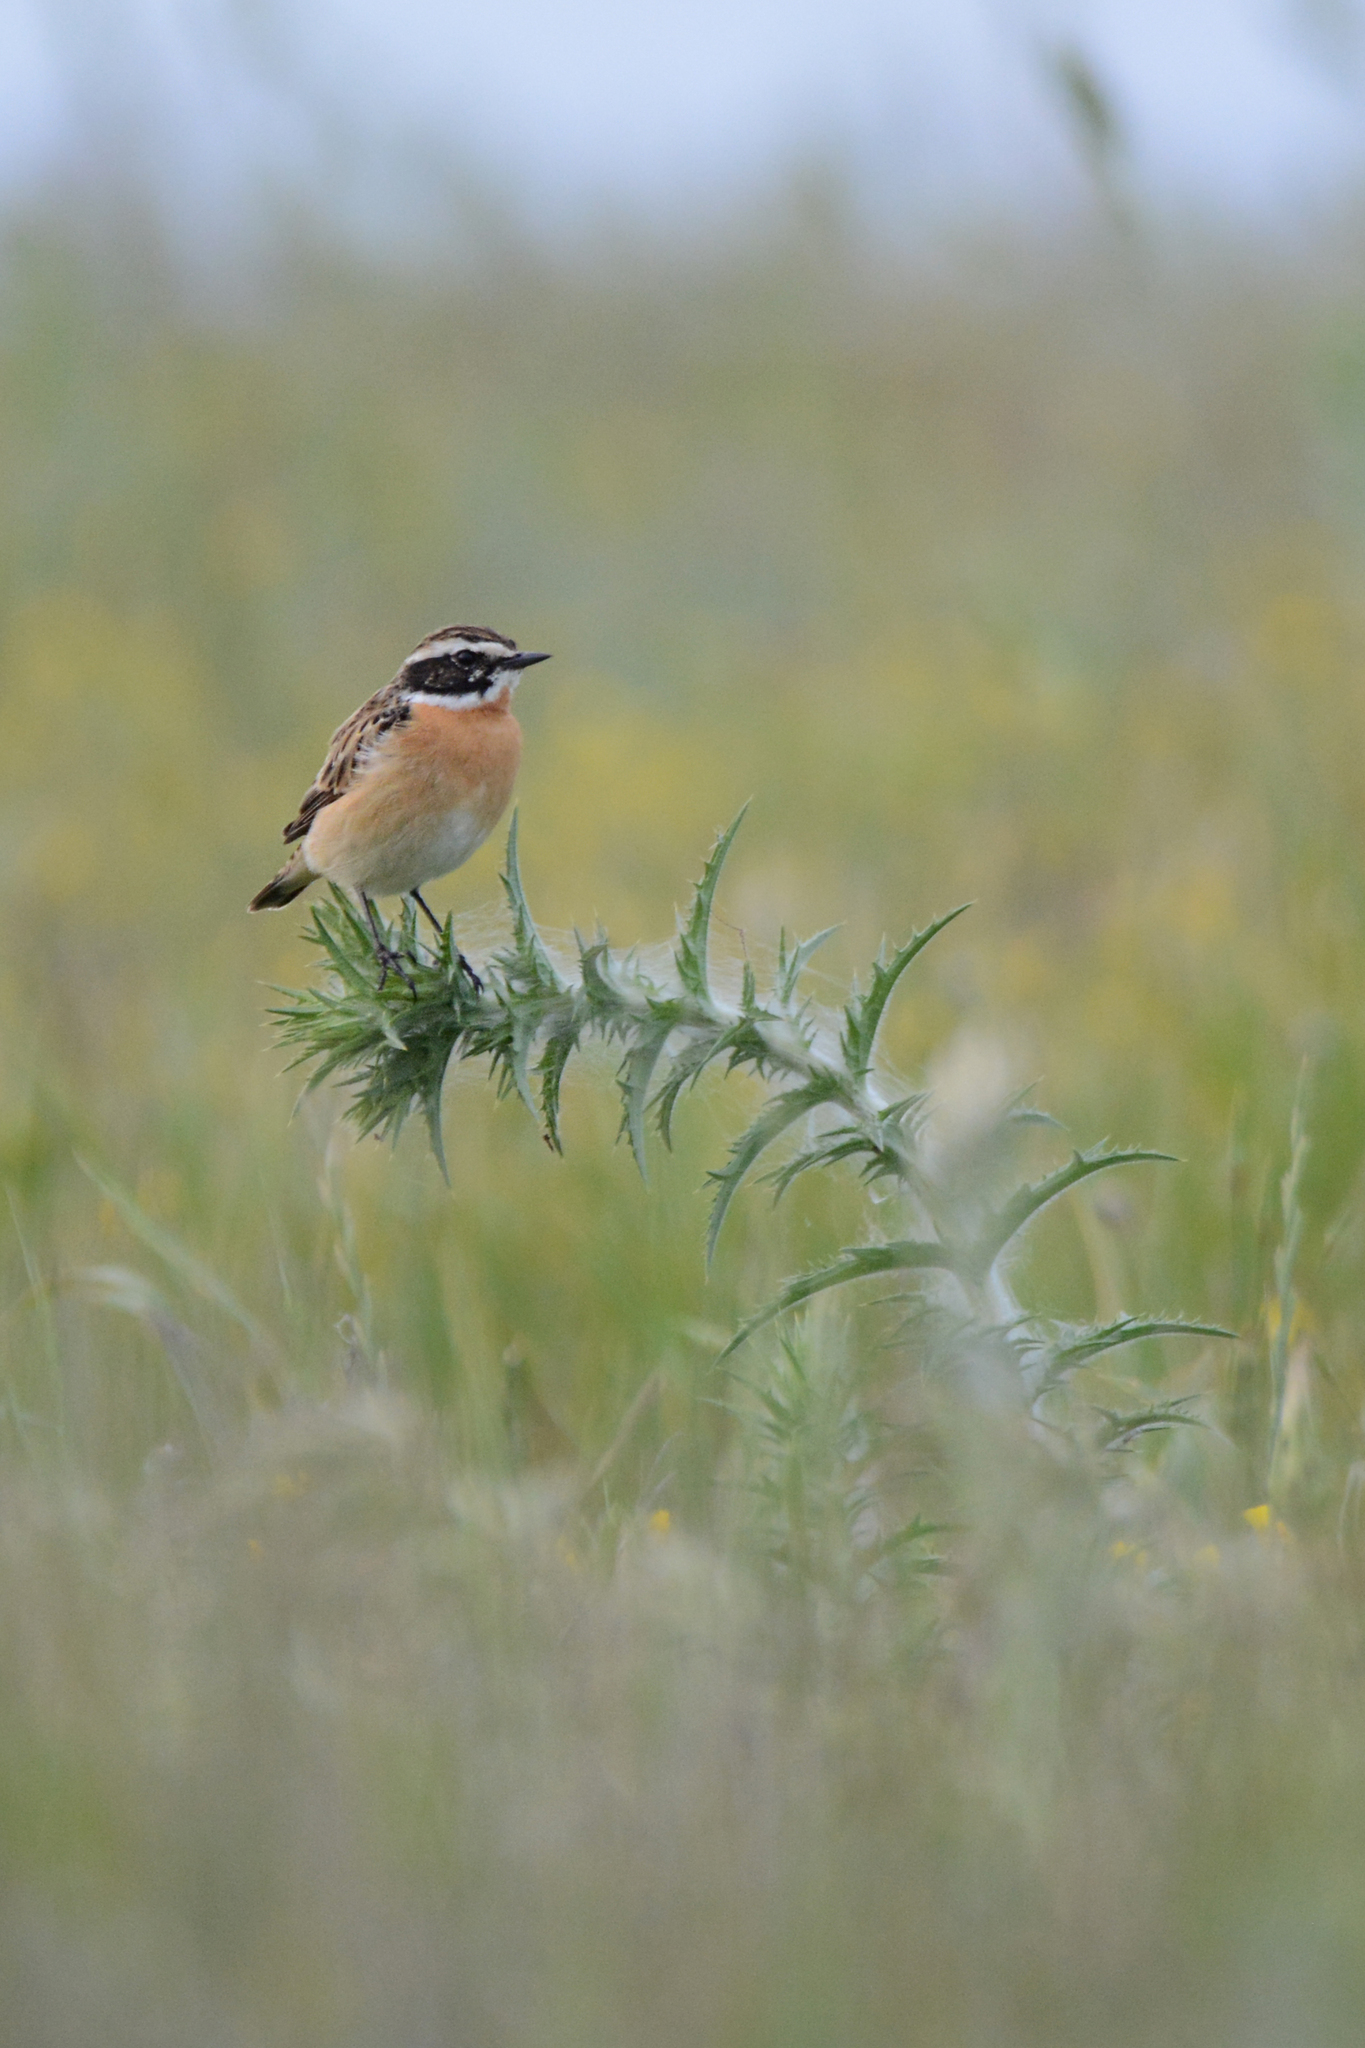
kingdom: Animalia
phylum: Chordata
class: Aves
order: Passeriformes
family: Muscicapidae
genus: Saxicola
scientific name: Saxicola rubetra
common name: Whinchat
